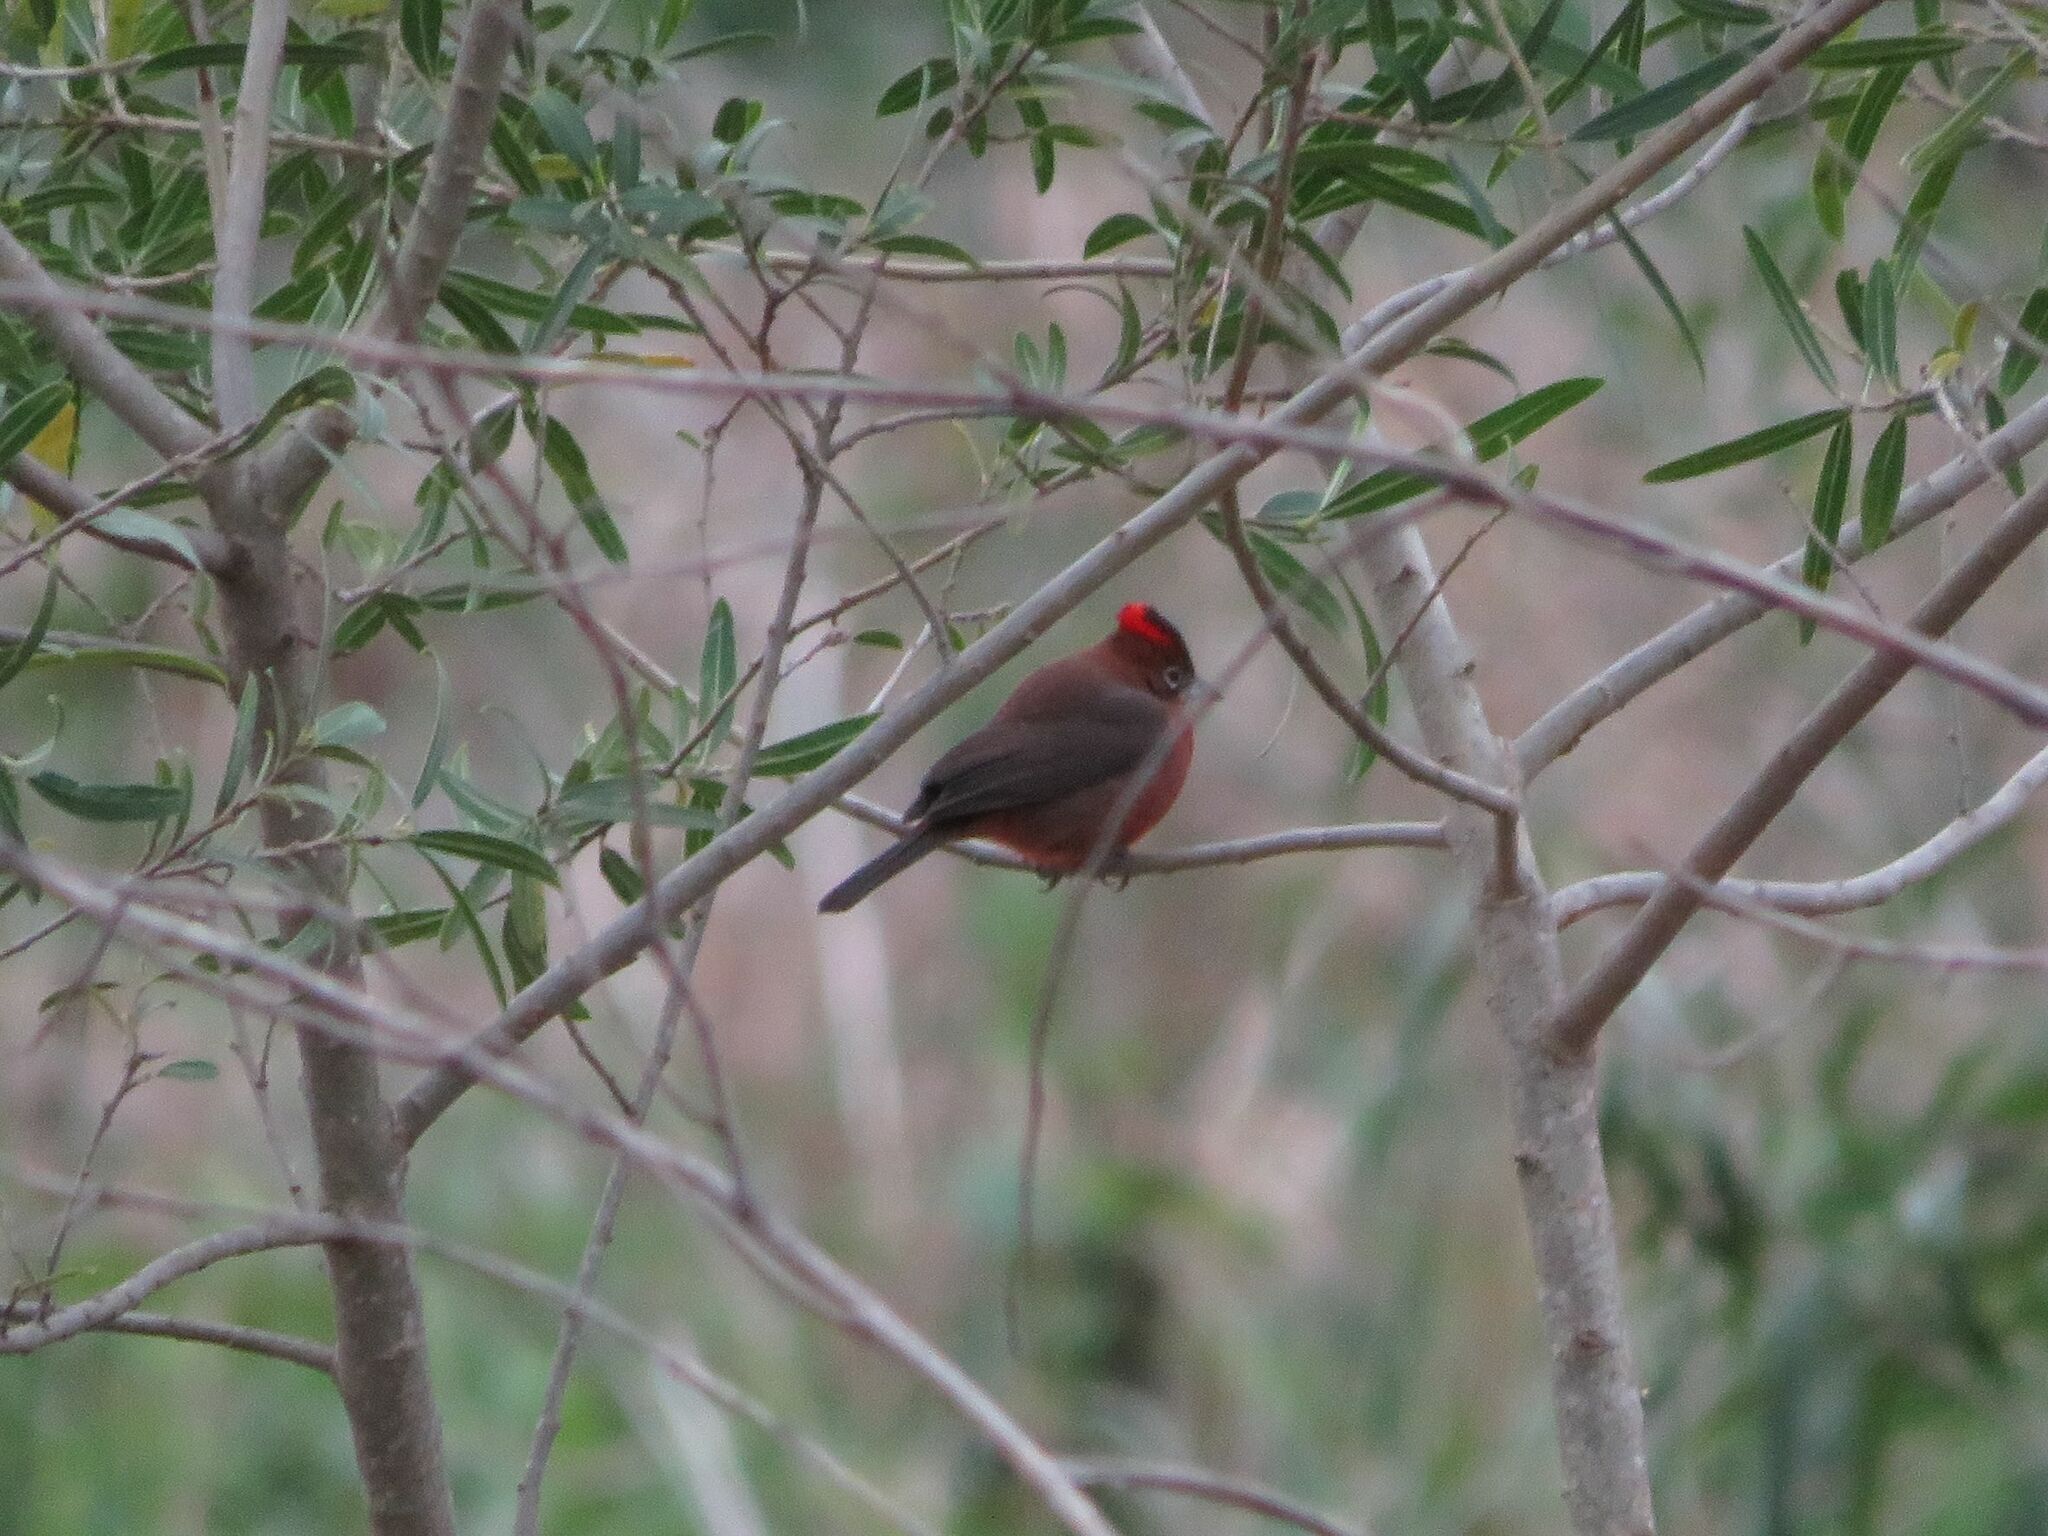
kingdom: Animalia
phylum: Chordata
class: Aves
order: Passeriformes
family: Thraupidae
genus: Coryphospingus
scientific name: Coryphospingus cucullatus
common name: Red pileated finch
